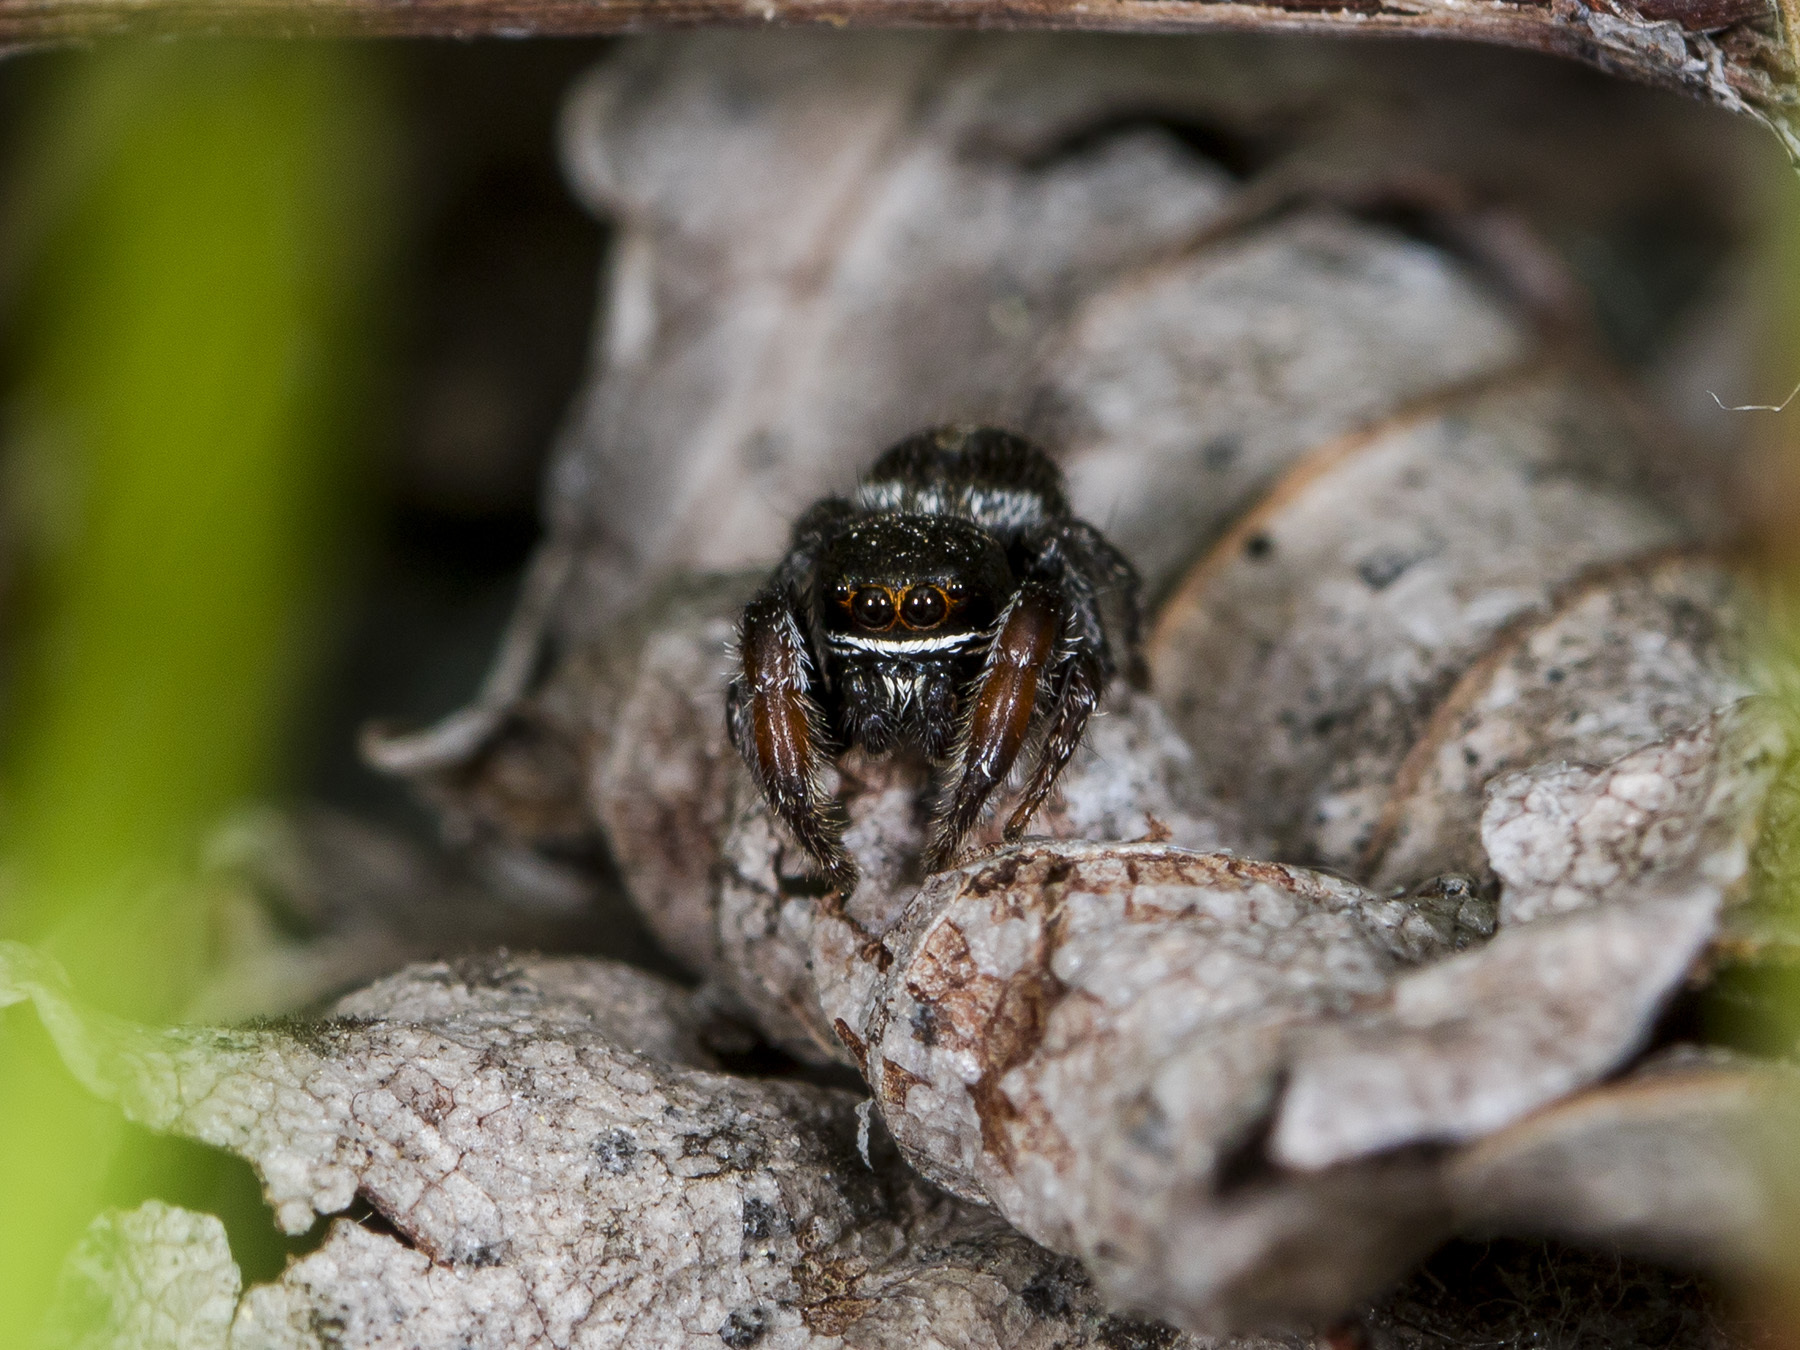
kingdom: Animalia
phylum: Arthropoda
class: Arachnida
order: Araneae
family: Salticidae
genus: Pellenes
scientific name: Pellenes allegrii
